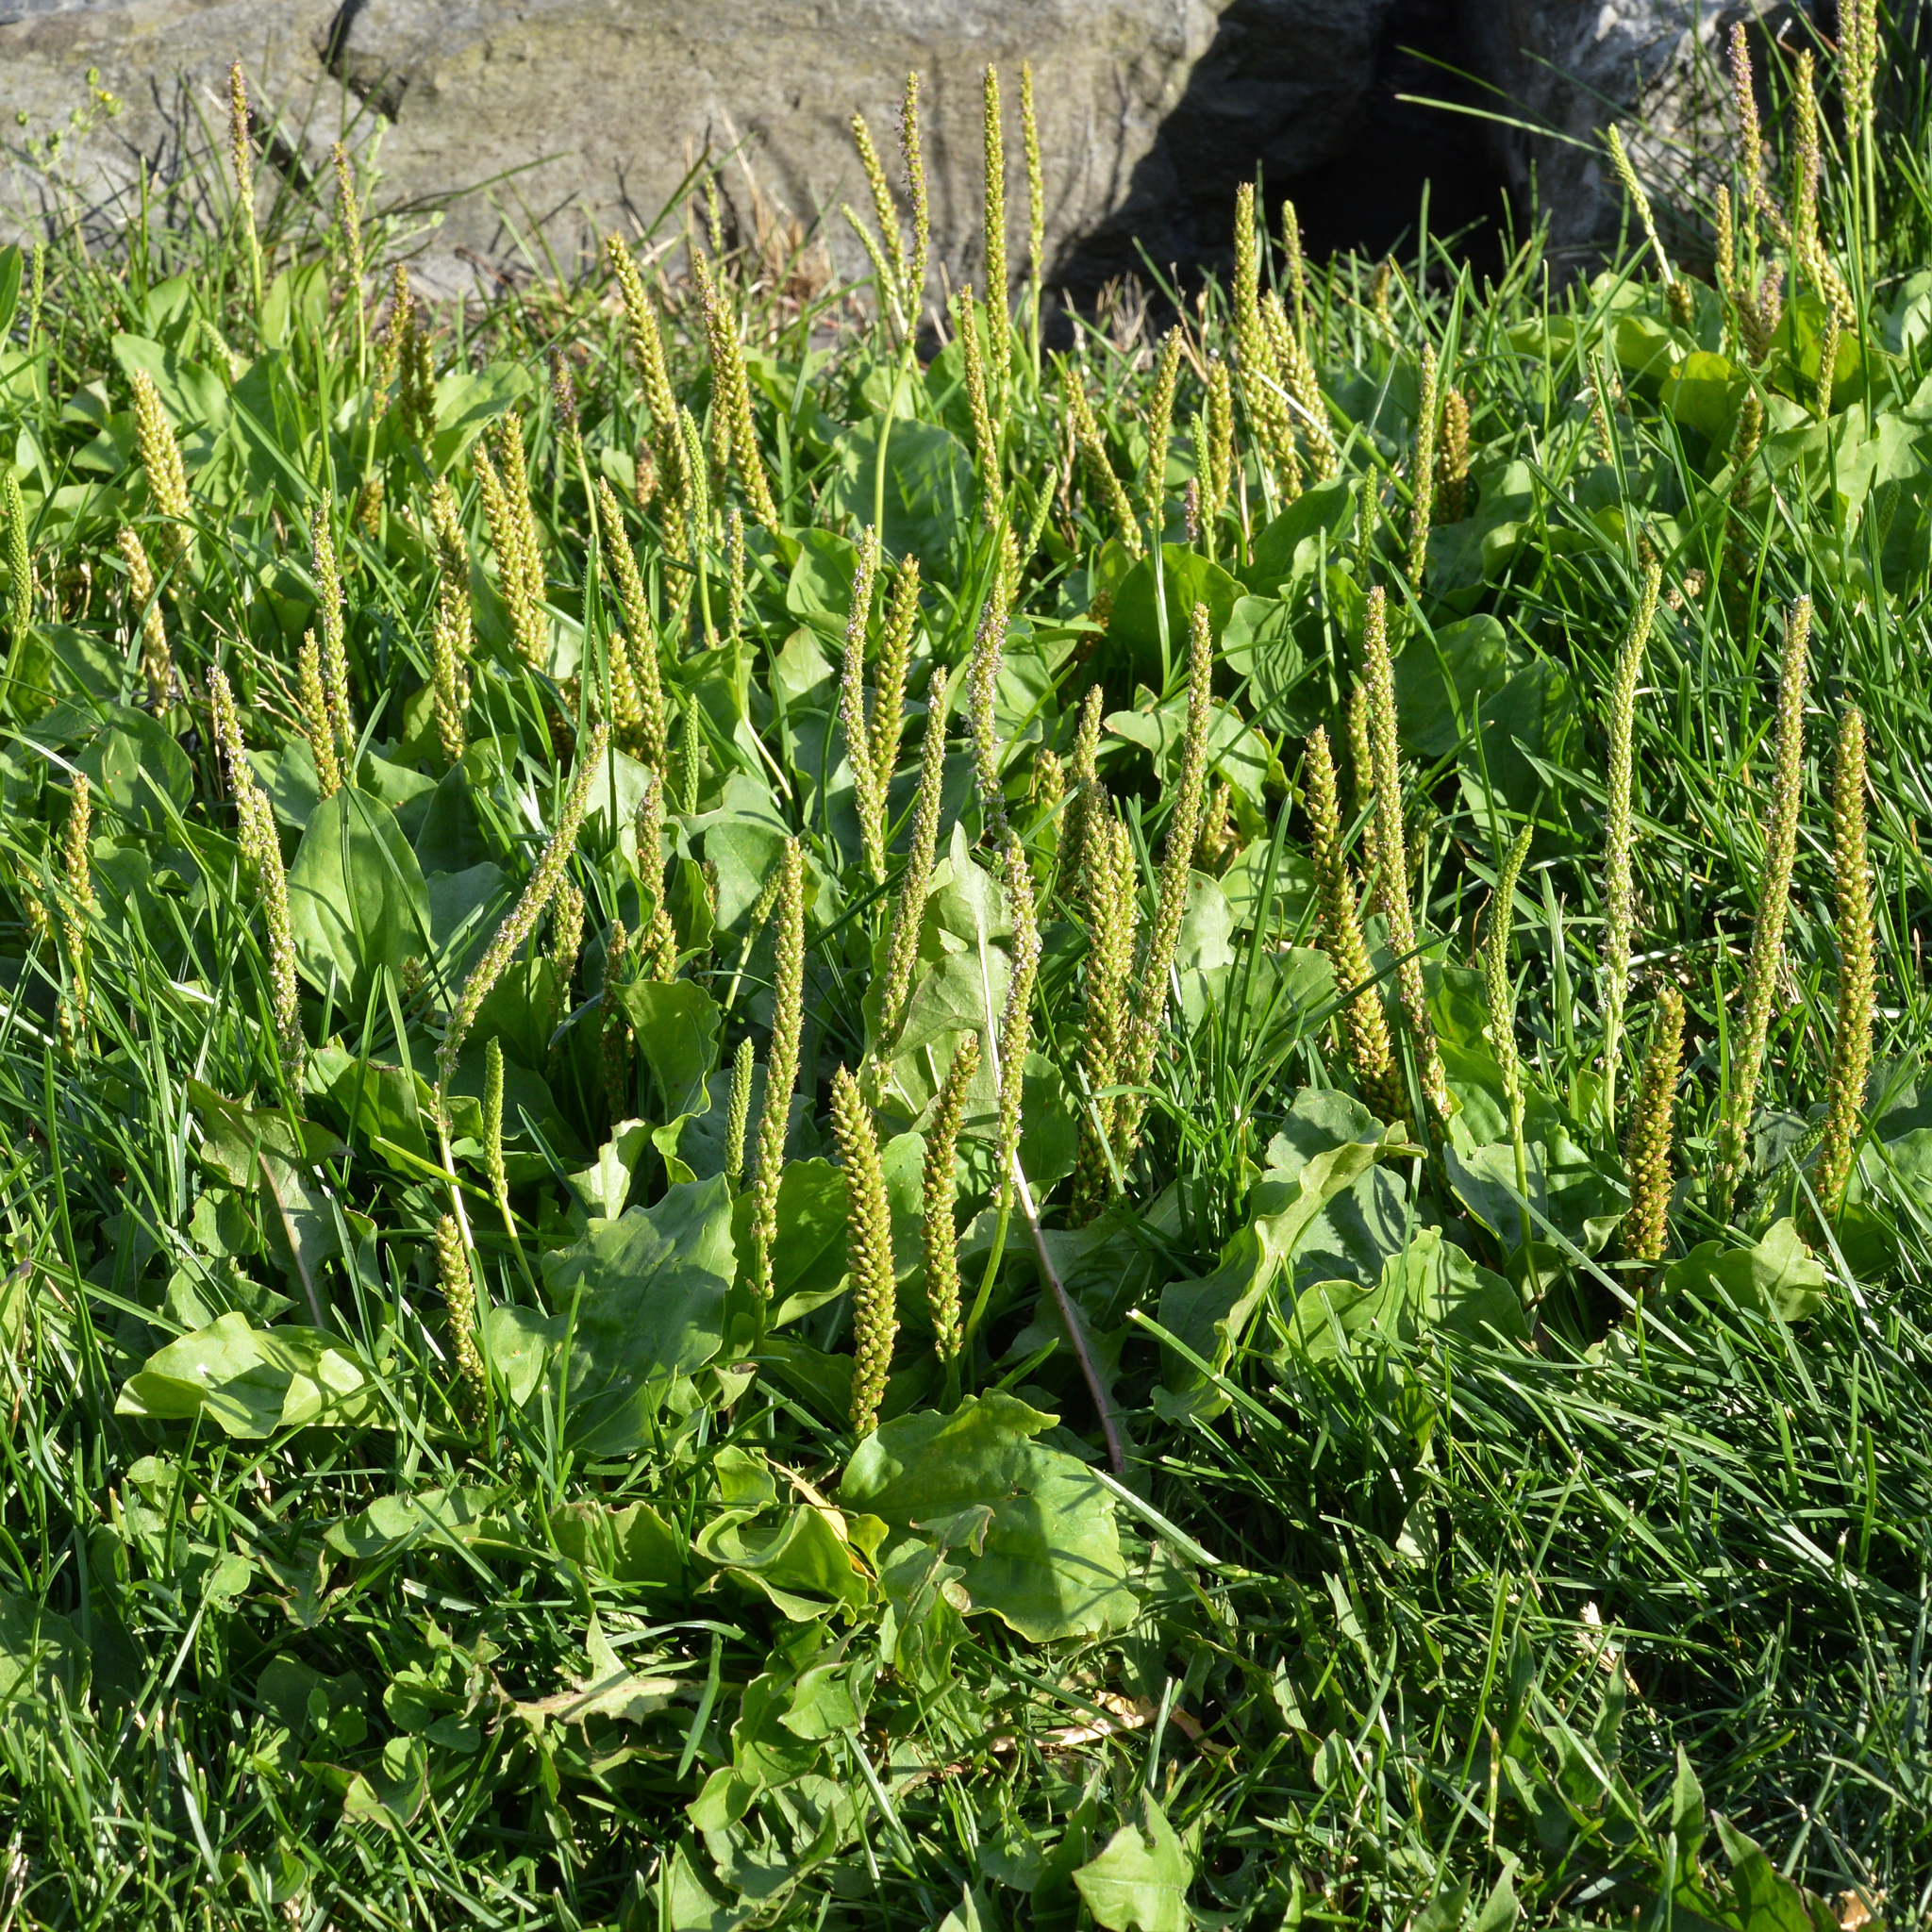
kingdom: Plantae
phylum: Tracheophyta
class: Magnoliopsida
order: Lamiales
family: Plantaginaceae
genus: Plantago
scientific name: Plantago major
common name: Common plantain
